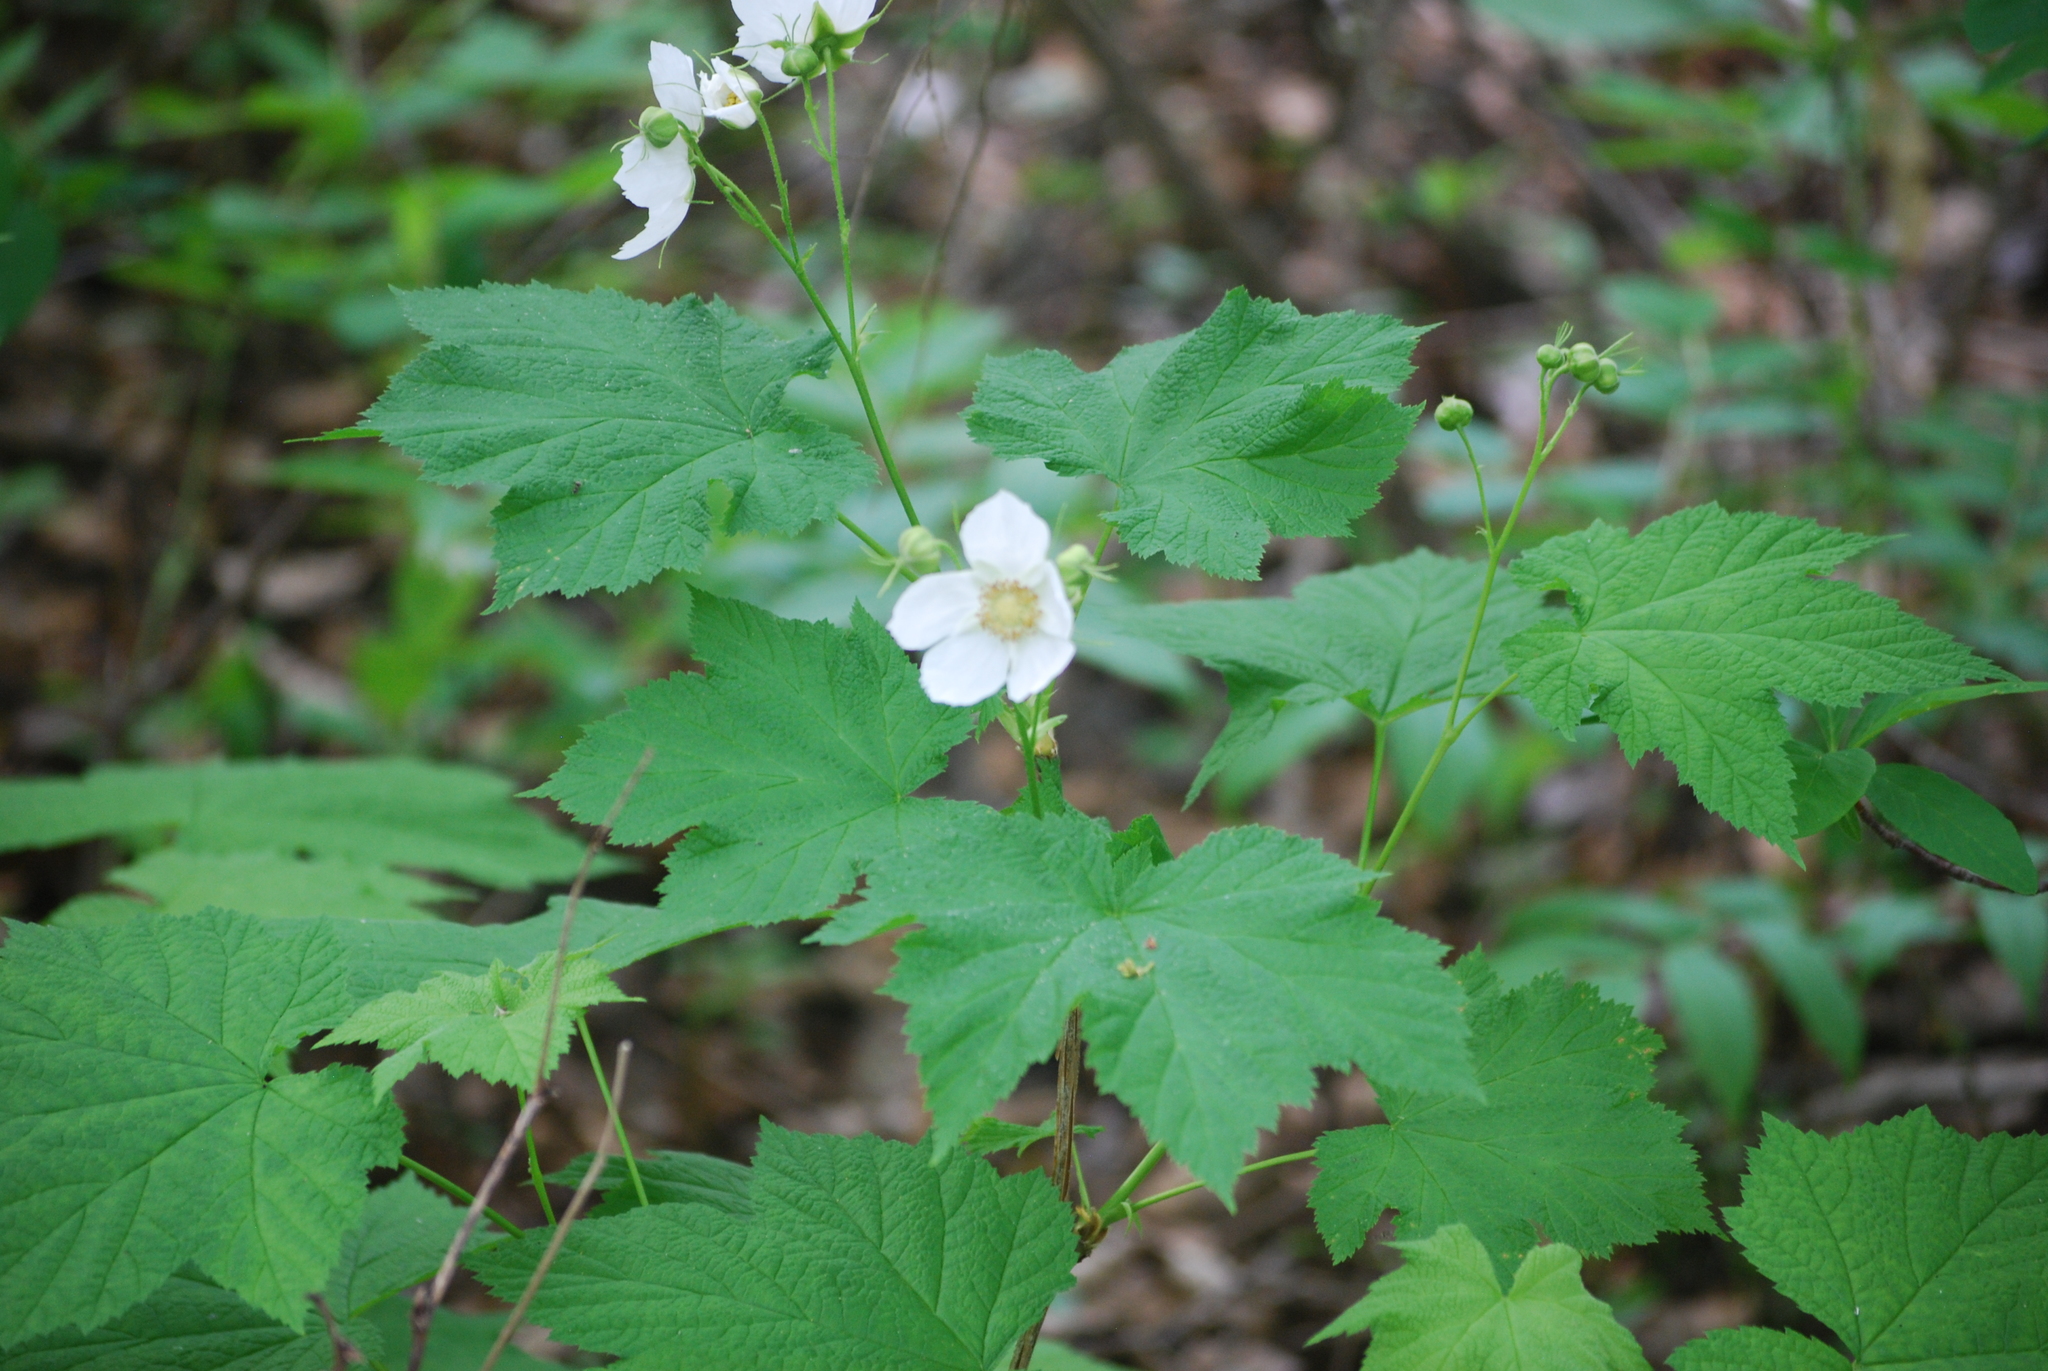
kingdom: Plantae
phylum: Tracheophyta
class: Magnoliopsida
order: Rosales
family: Rosaceae
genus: Rubus
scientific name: Rubus parviflorus
